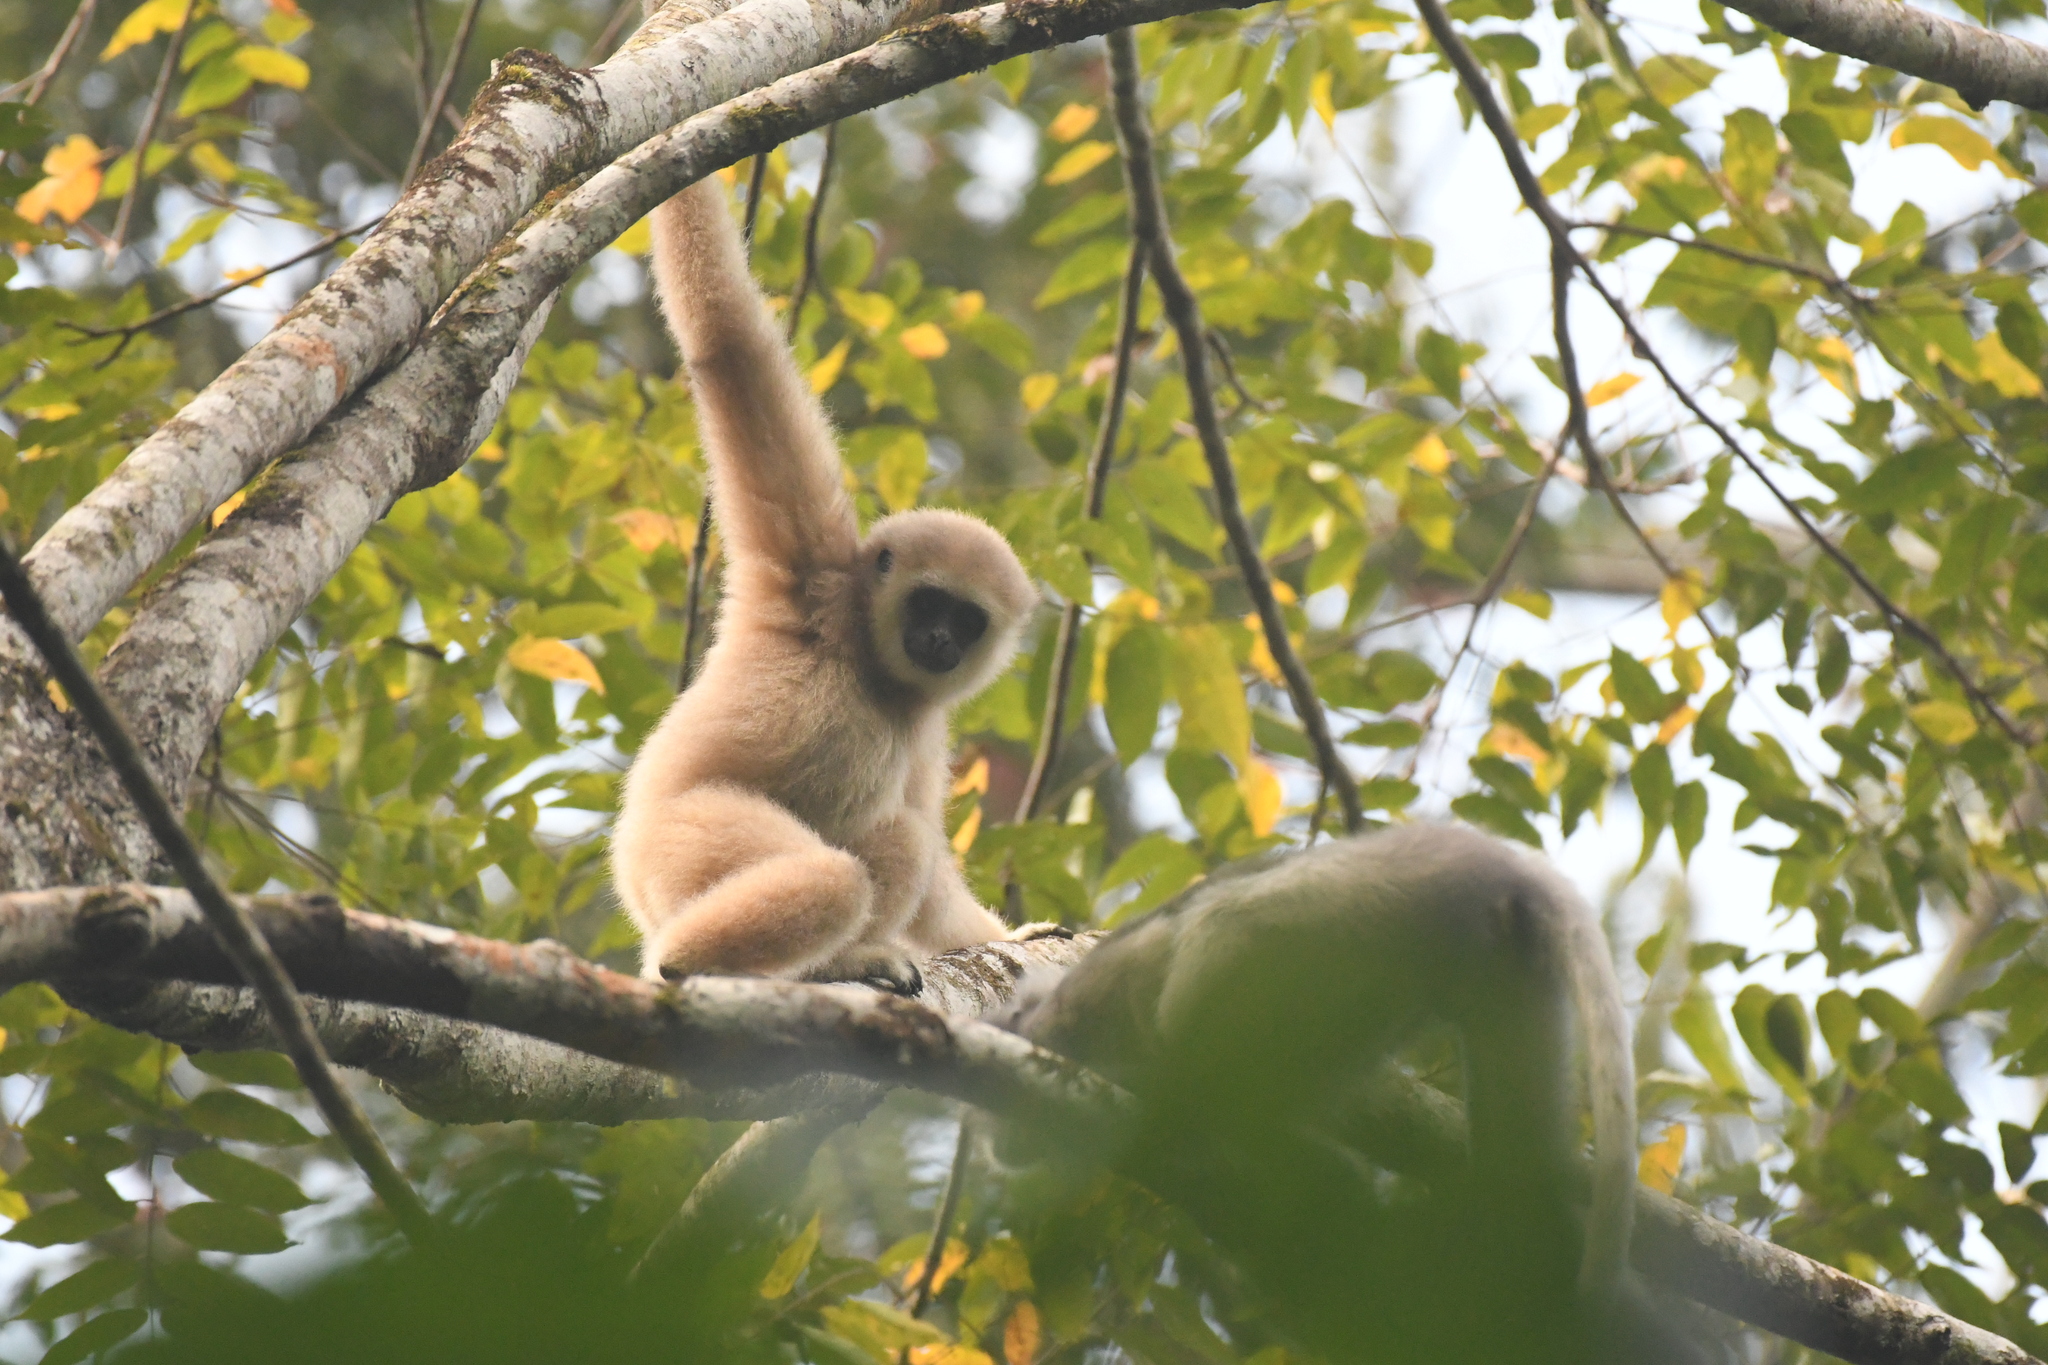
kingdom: Animalia
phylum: Chordata
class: Mammalia
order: Primates
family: Hylobatidae
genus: Hylobates
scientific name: Hylobates lar
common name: Lar gibbon
